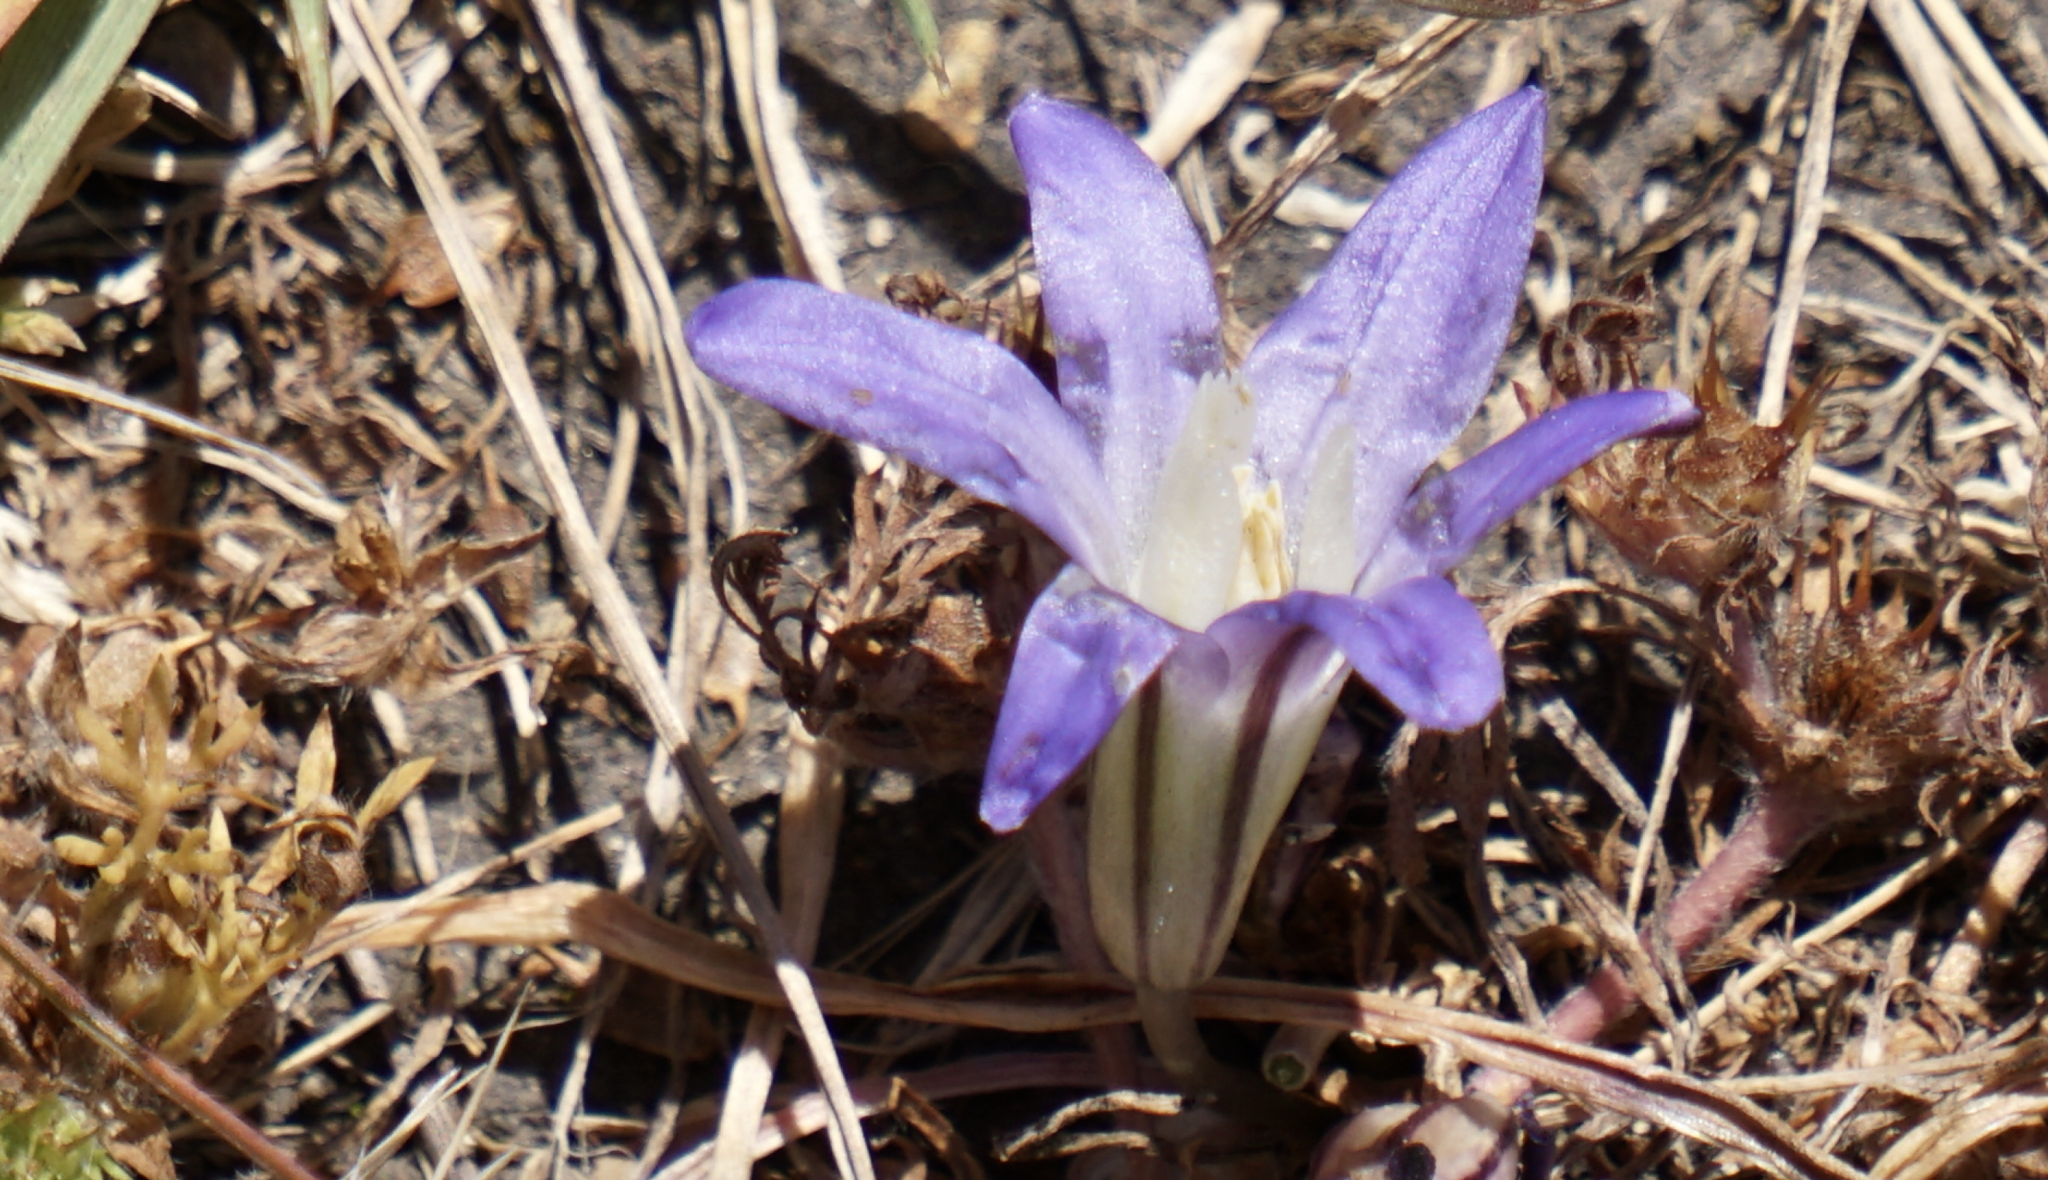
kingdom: Plantae
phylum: Tracheophyta
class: Liliopsida
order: Asparagales
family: Asparagaceae
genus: Brodiaea
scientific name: Brodiaea terrestris
